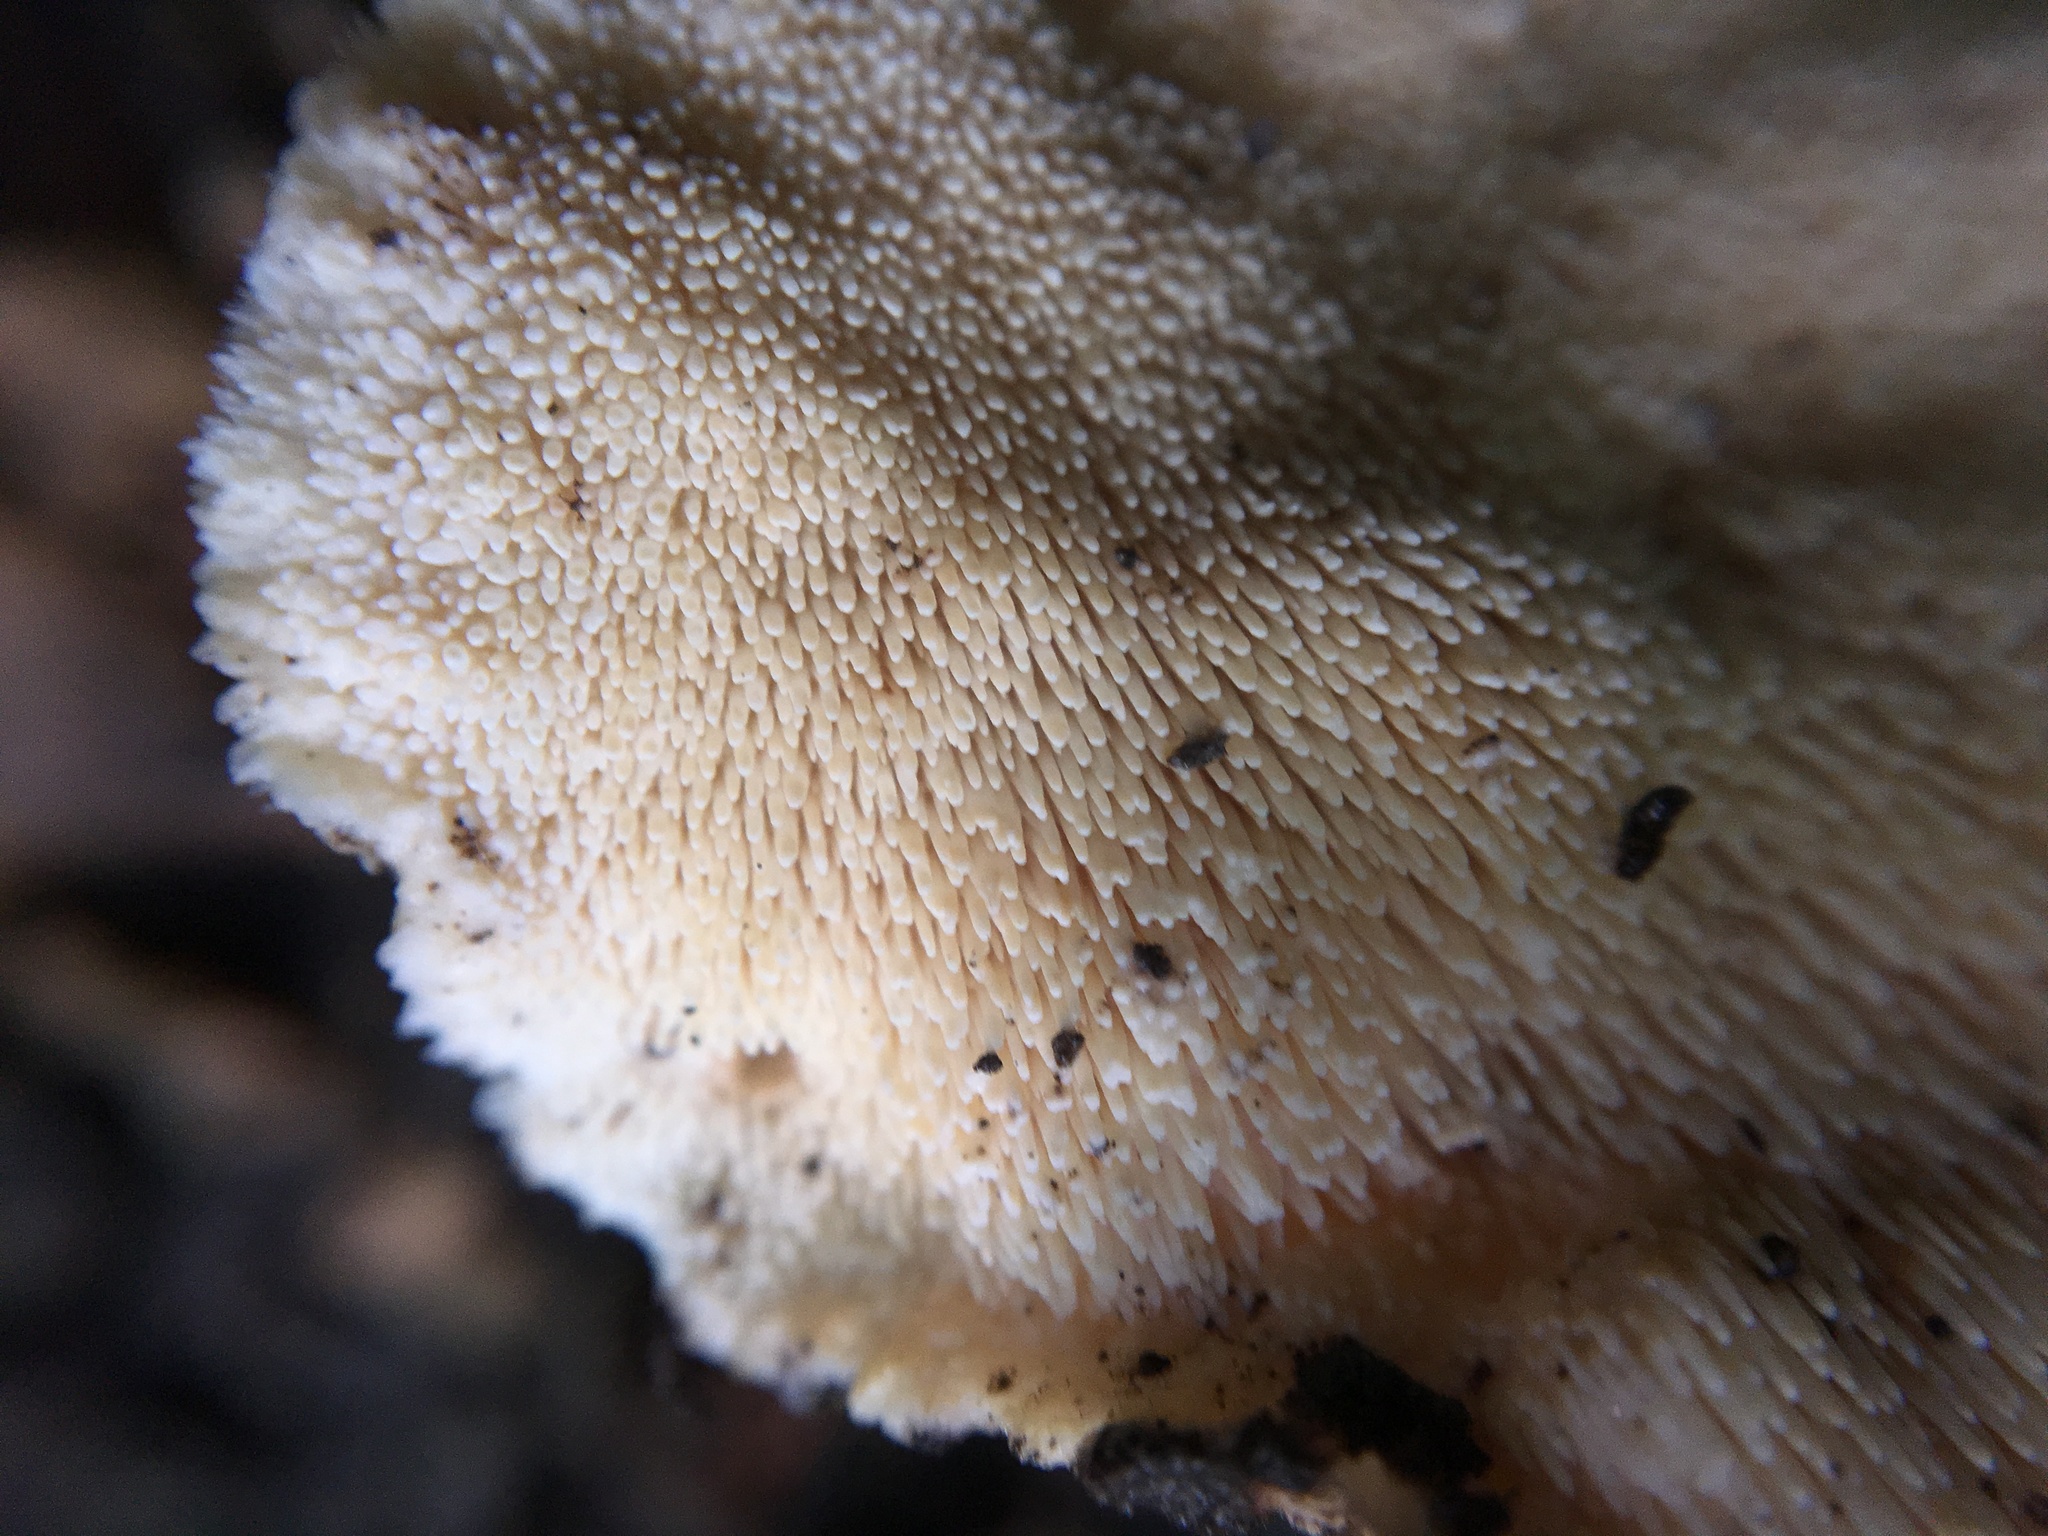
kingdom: Fungi
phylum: Basidiomycota
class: Agaricomycetes
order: Polyporales
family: Meruliaceae
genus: Donkia
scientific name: Donkia pulcherrima
